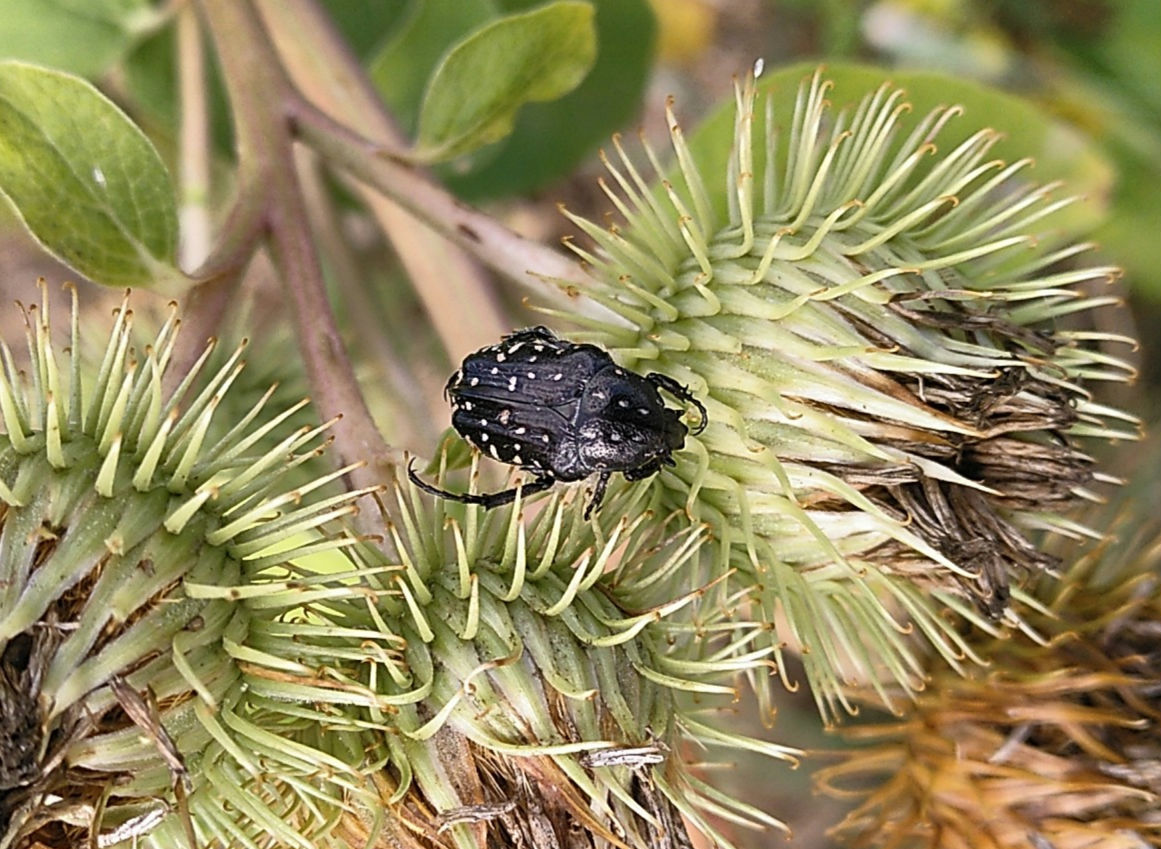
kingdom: Animalia
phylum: Arthropoda
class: Insecta
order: Coleoptera
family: Scarabaeidae
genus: Oxythyrea
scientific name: Oxythyrea funesta
